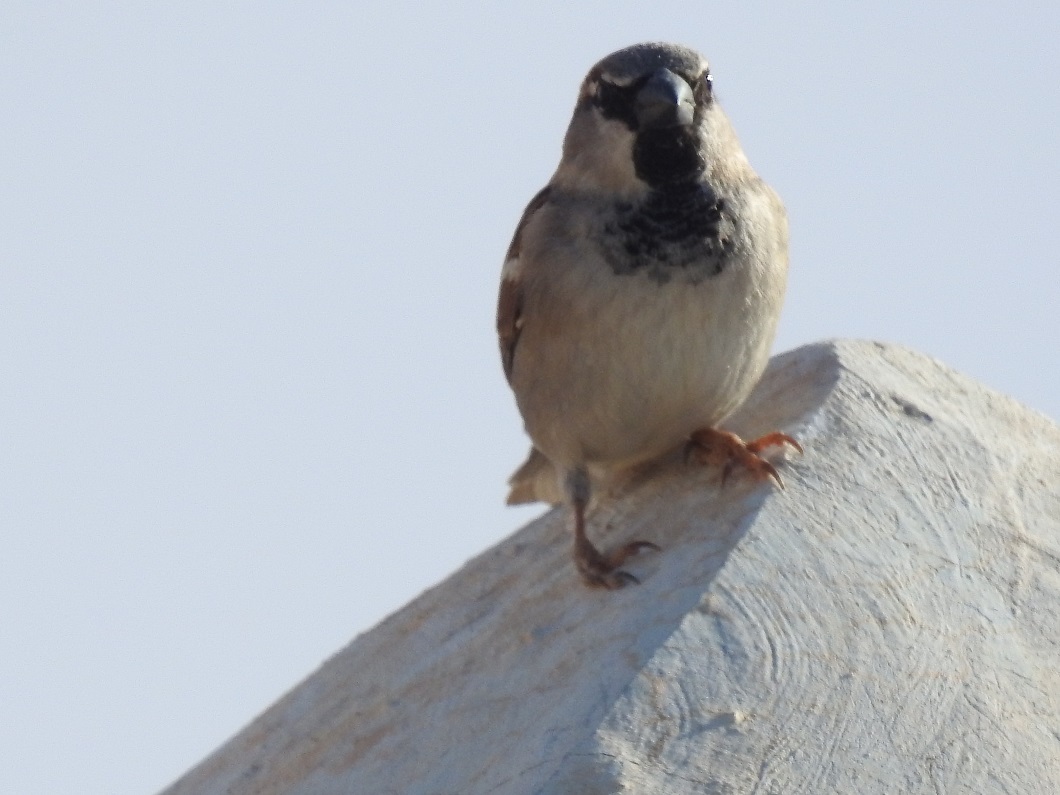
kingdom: Animalia
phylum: Chordata
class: Aves
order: Passeriformes
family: Passeridae
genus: Passer
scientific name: Passer domesticus
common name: House sparrow
